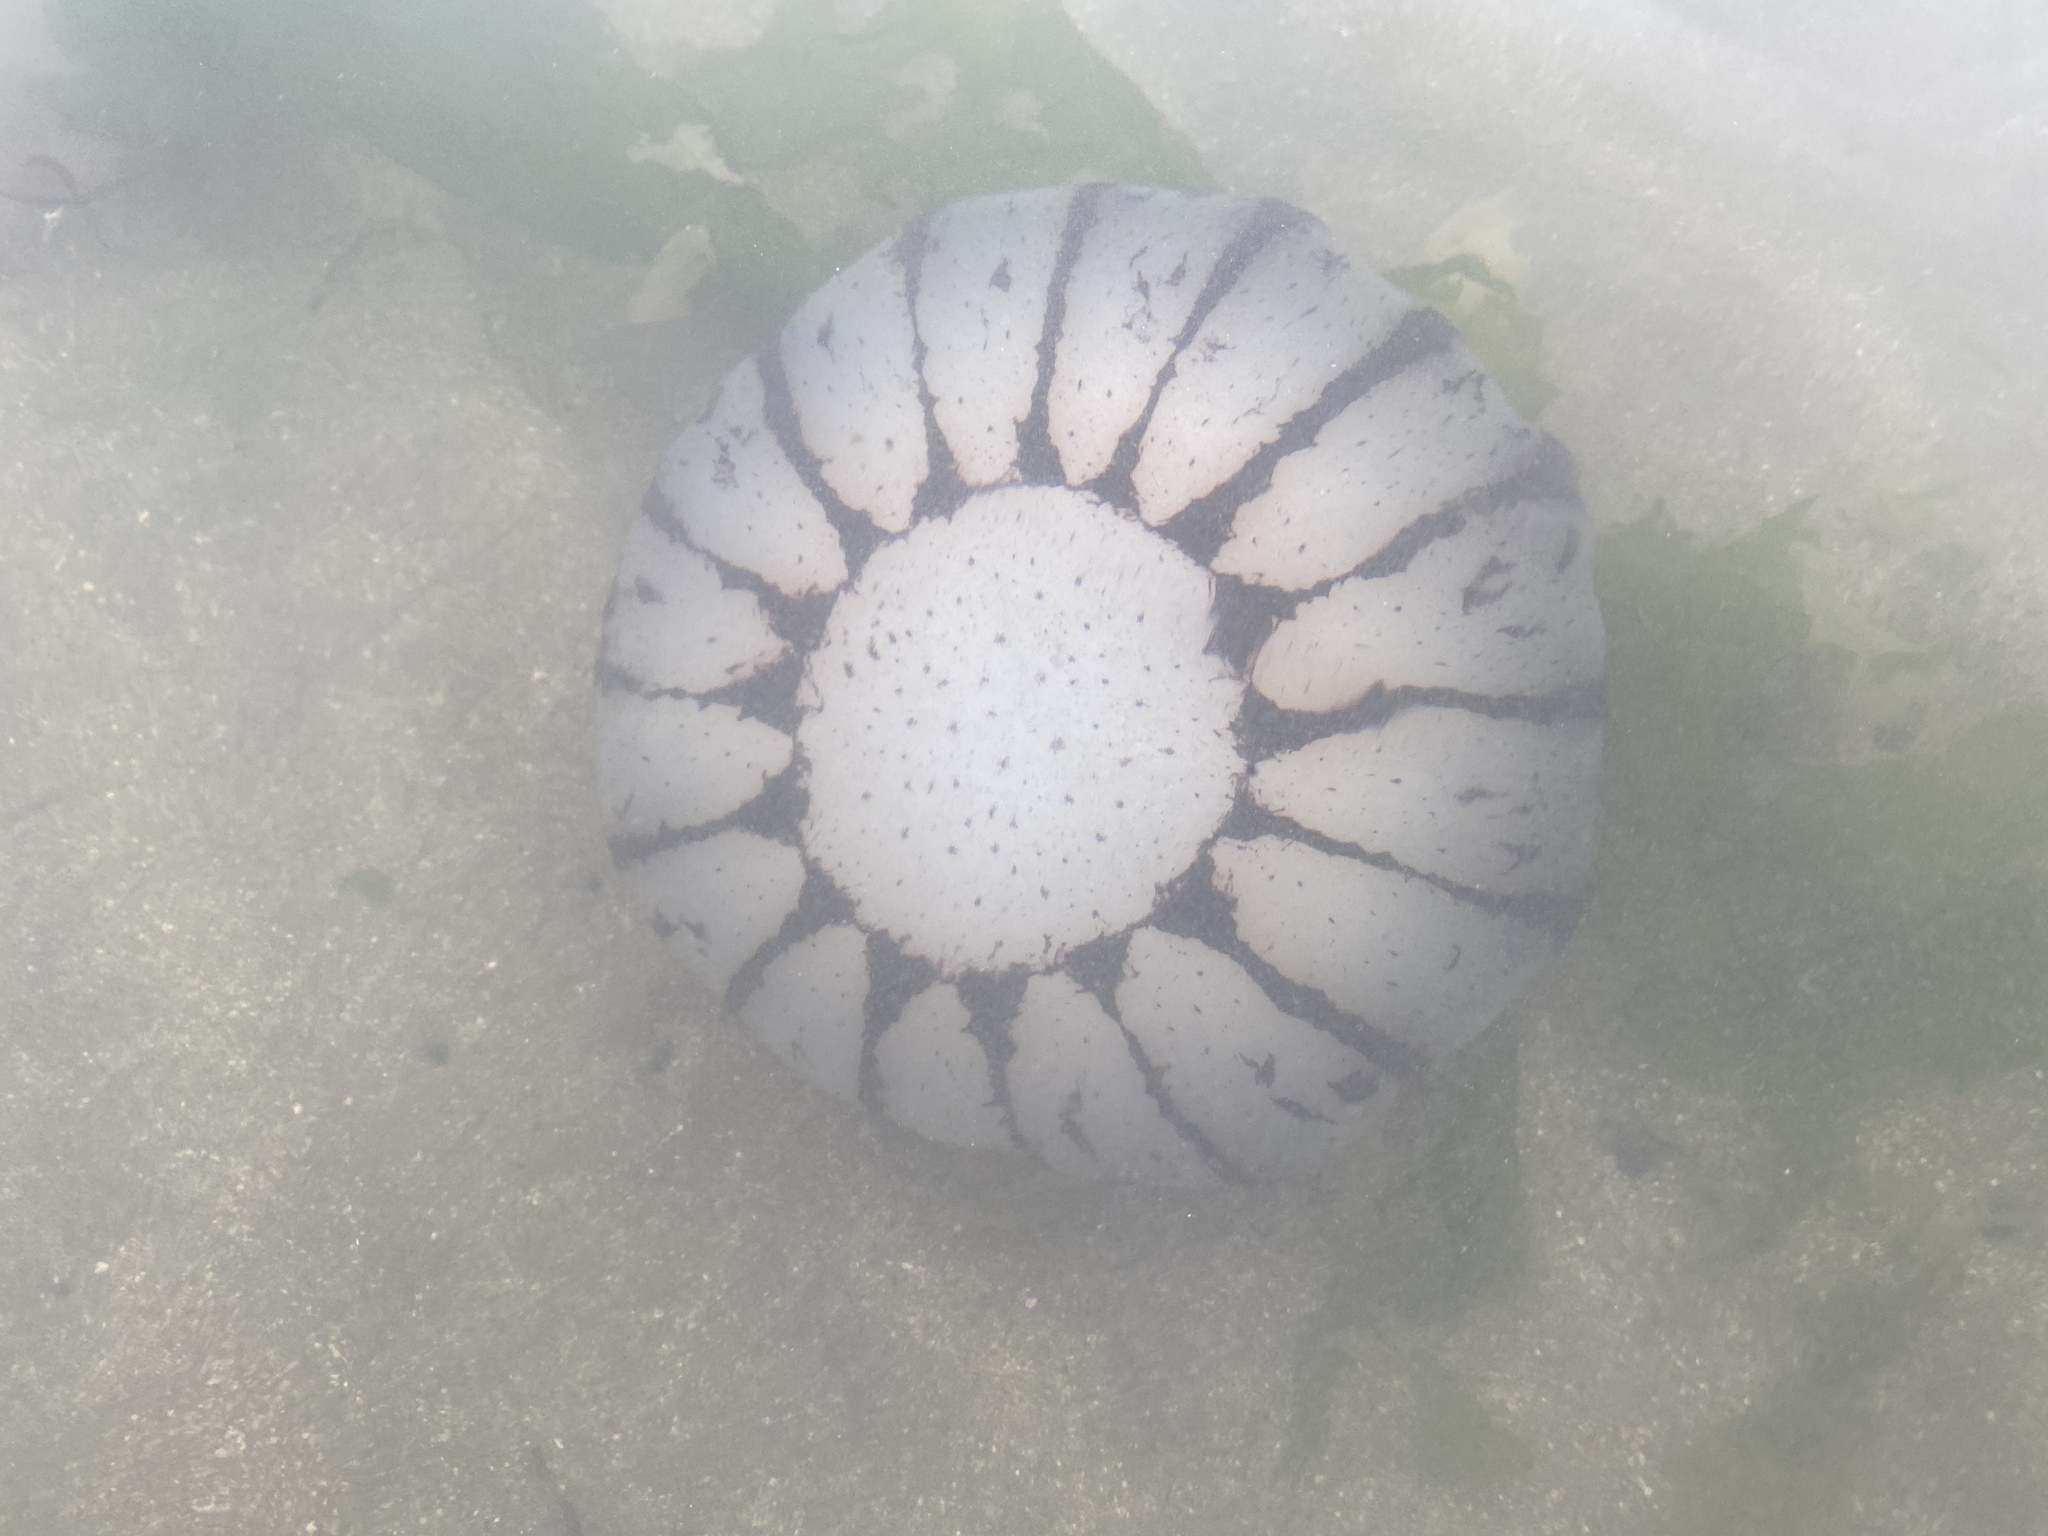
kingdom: Animalia
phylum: Cnidaria
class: Scyphozoa
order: Semaeostomeae
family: Pelagiidae
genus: Chrysaora
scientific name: Chrysaora colorata
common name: Purple-striped jellyfish
